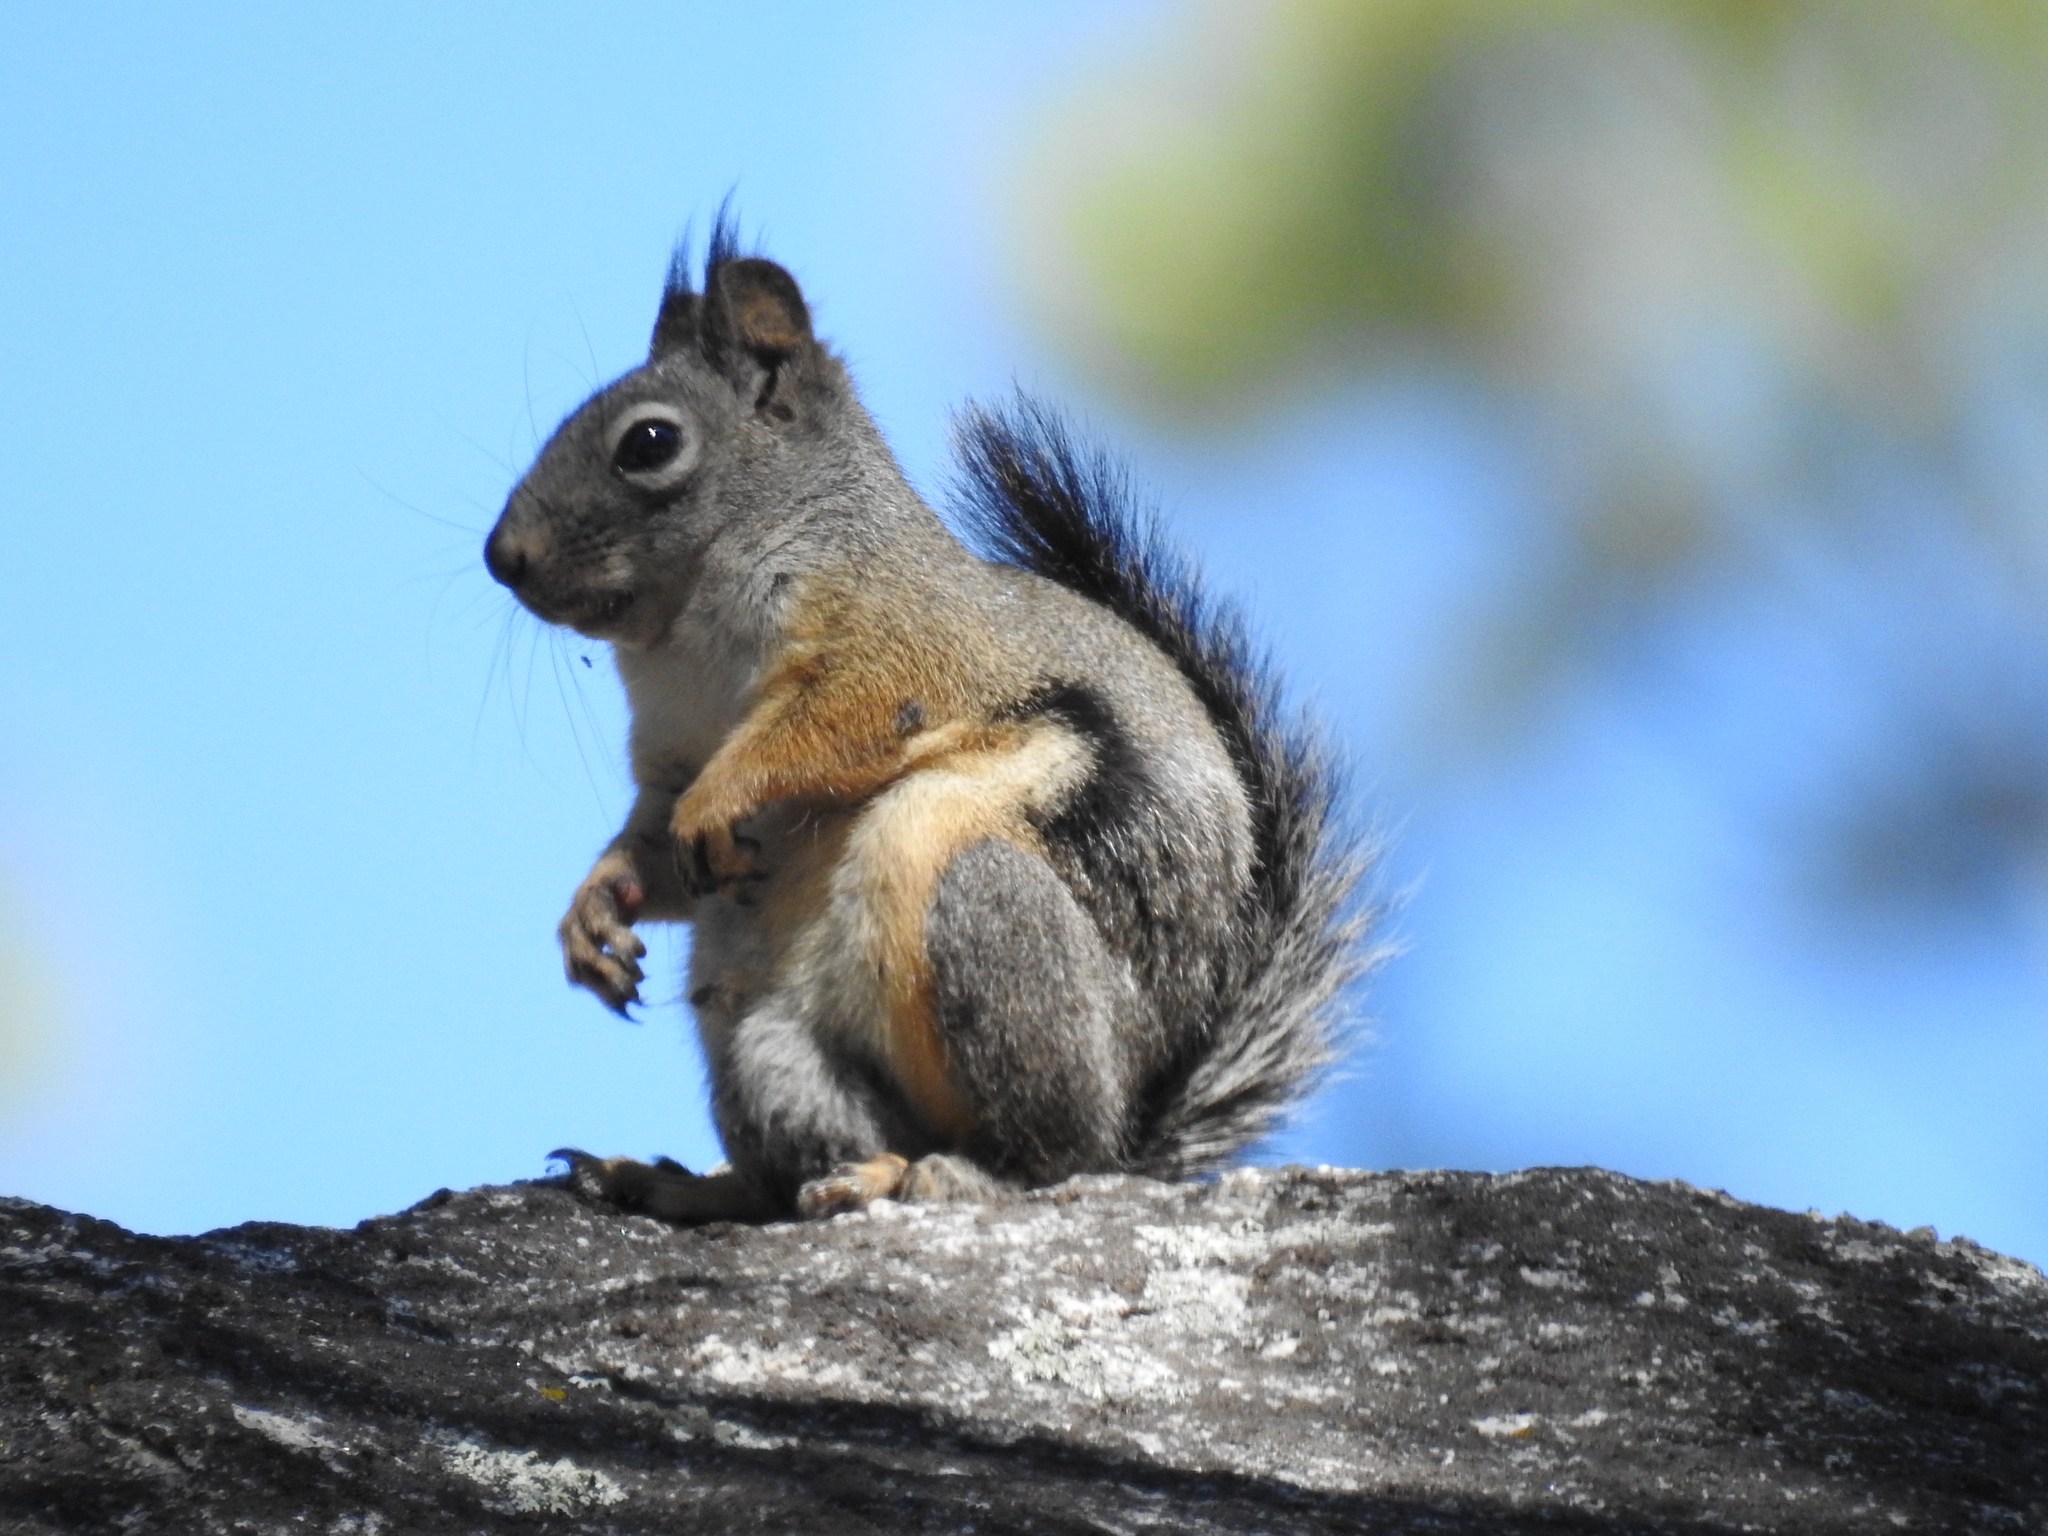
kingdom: Animalia
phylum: Chordata
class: Mammalia
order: Rodentia
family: Sciuridae
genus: Tamiasciurus
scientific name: Tamiasciurus douglasii
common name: Douglas's squirrel
